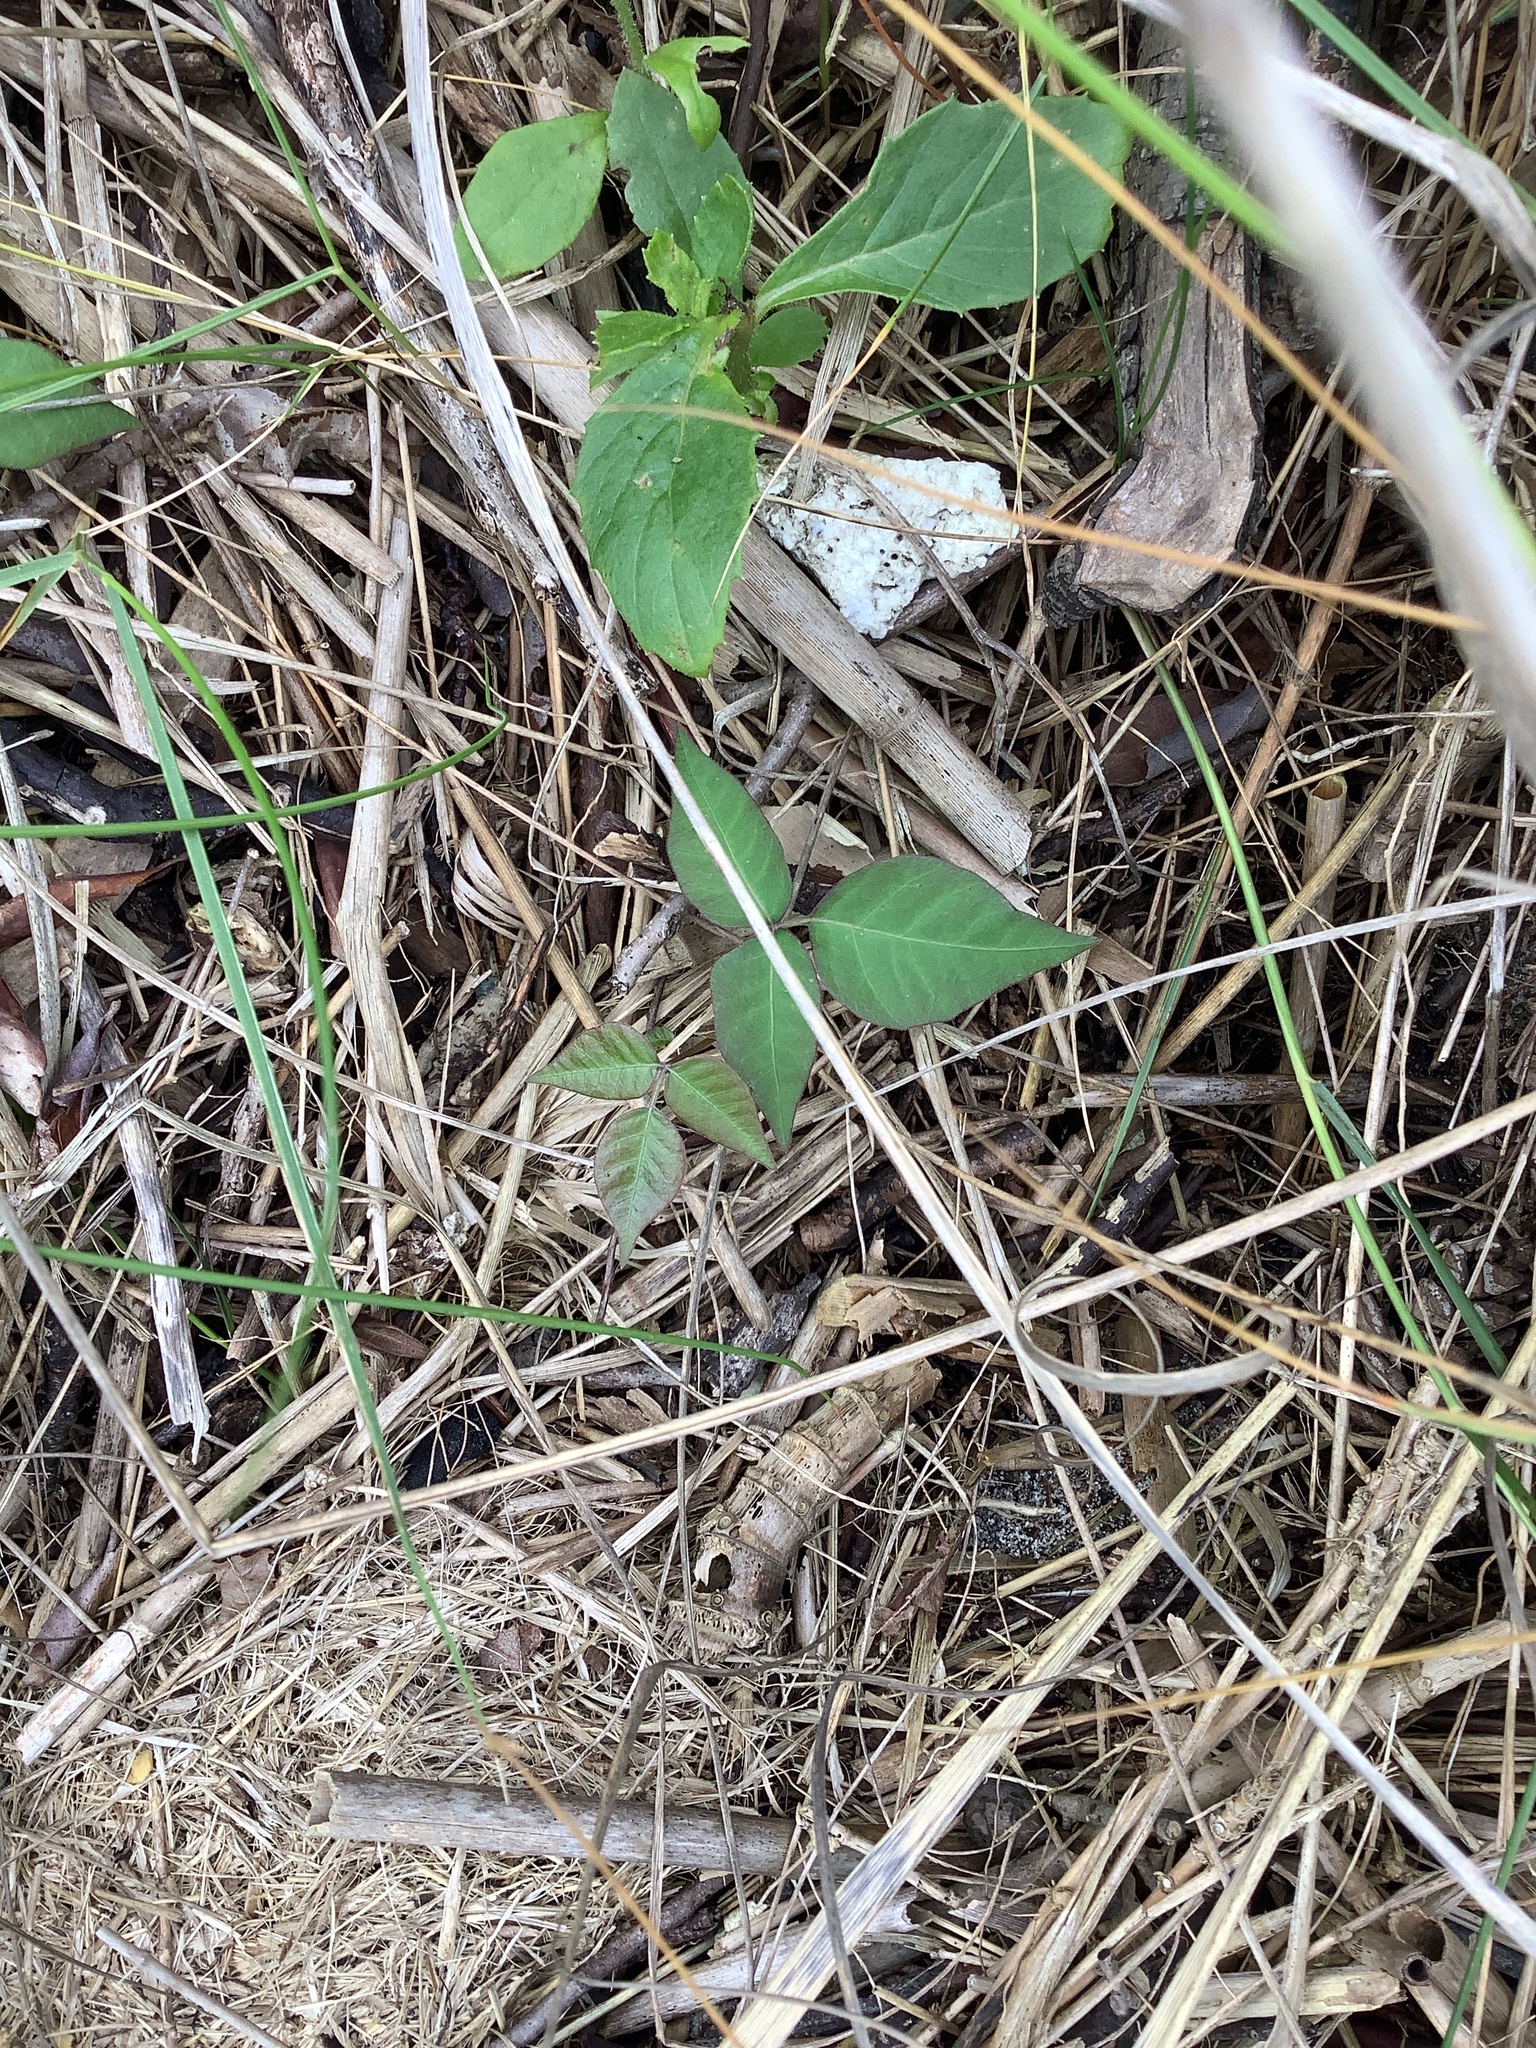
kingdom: Plantae
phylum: Tracheophyta
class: Magnoliopsida
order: Sapindales
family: Anacardiaceae
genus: Toxicodendron
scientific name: Toxicodendron radicans
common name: Poison ivy
